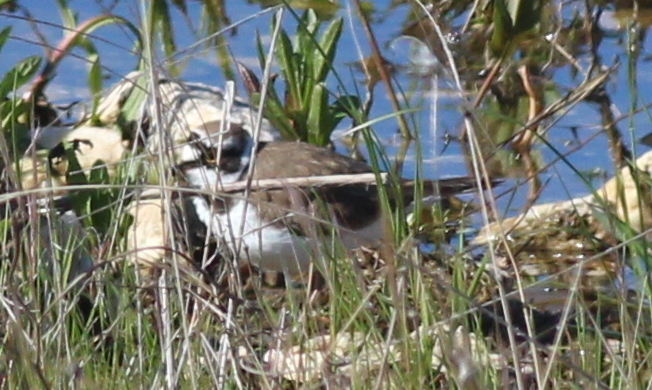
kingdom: Animalia
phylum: Chordata
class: Aves
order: Charadriiformes
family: Charadriidae
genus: Charadrius
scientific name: Charadrius dubius
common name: Little ringed plover
